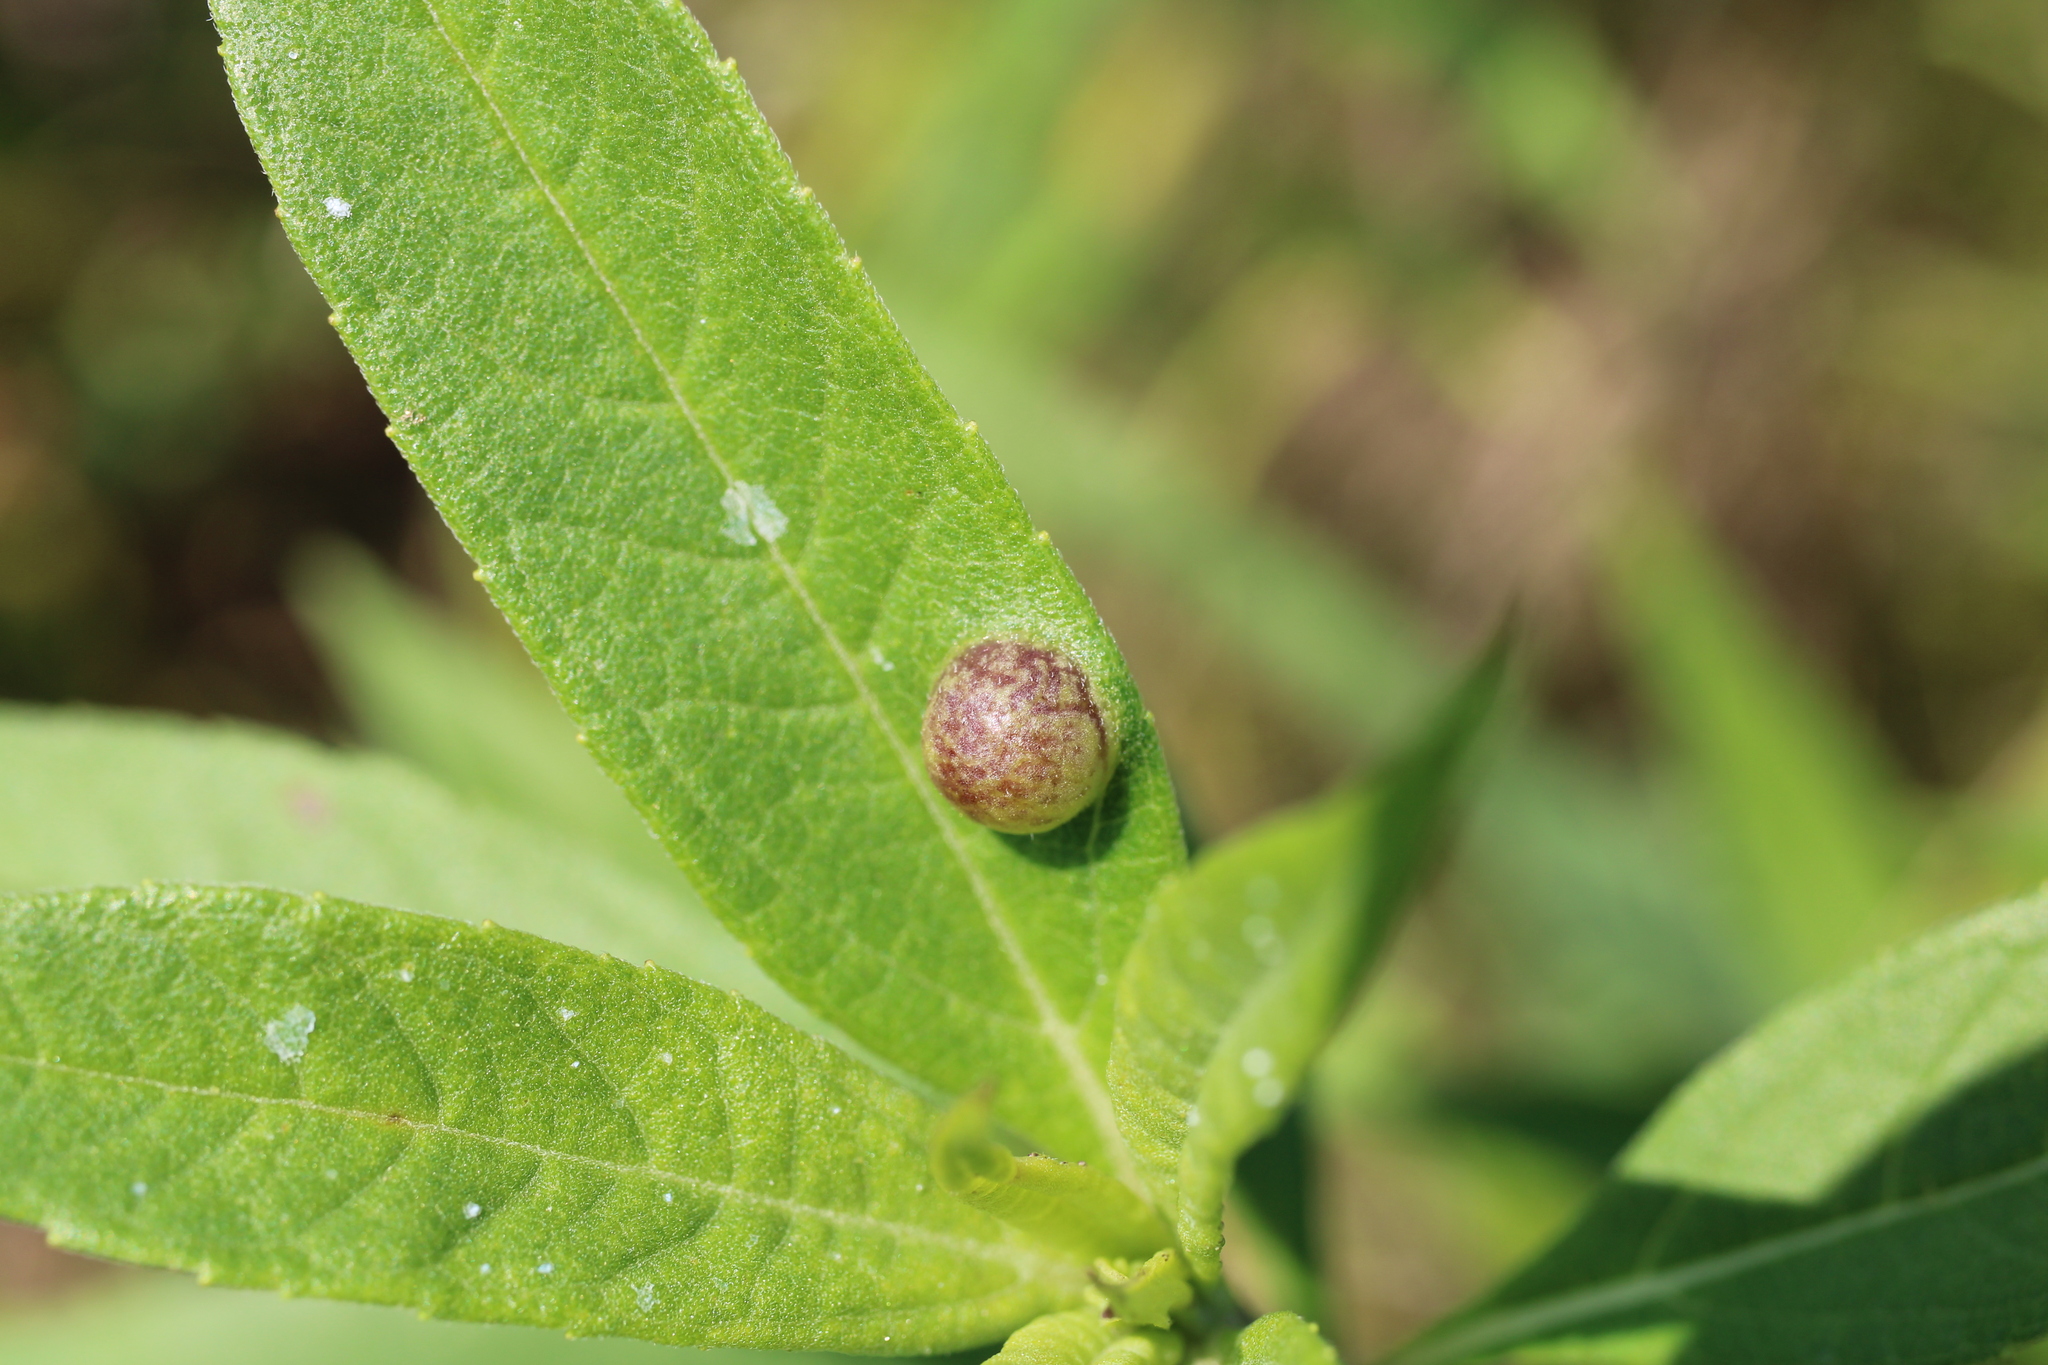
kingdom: Animalia
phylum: Arthropoda
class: Insecta
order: Diptera
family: Cecidomyiidae
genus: Pilodiplosis
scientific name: Pilodiplosis helianthibulla
